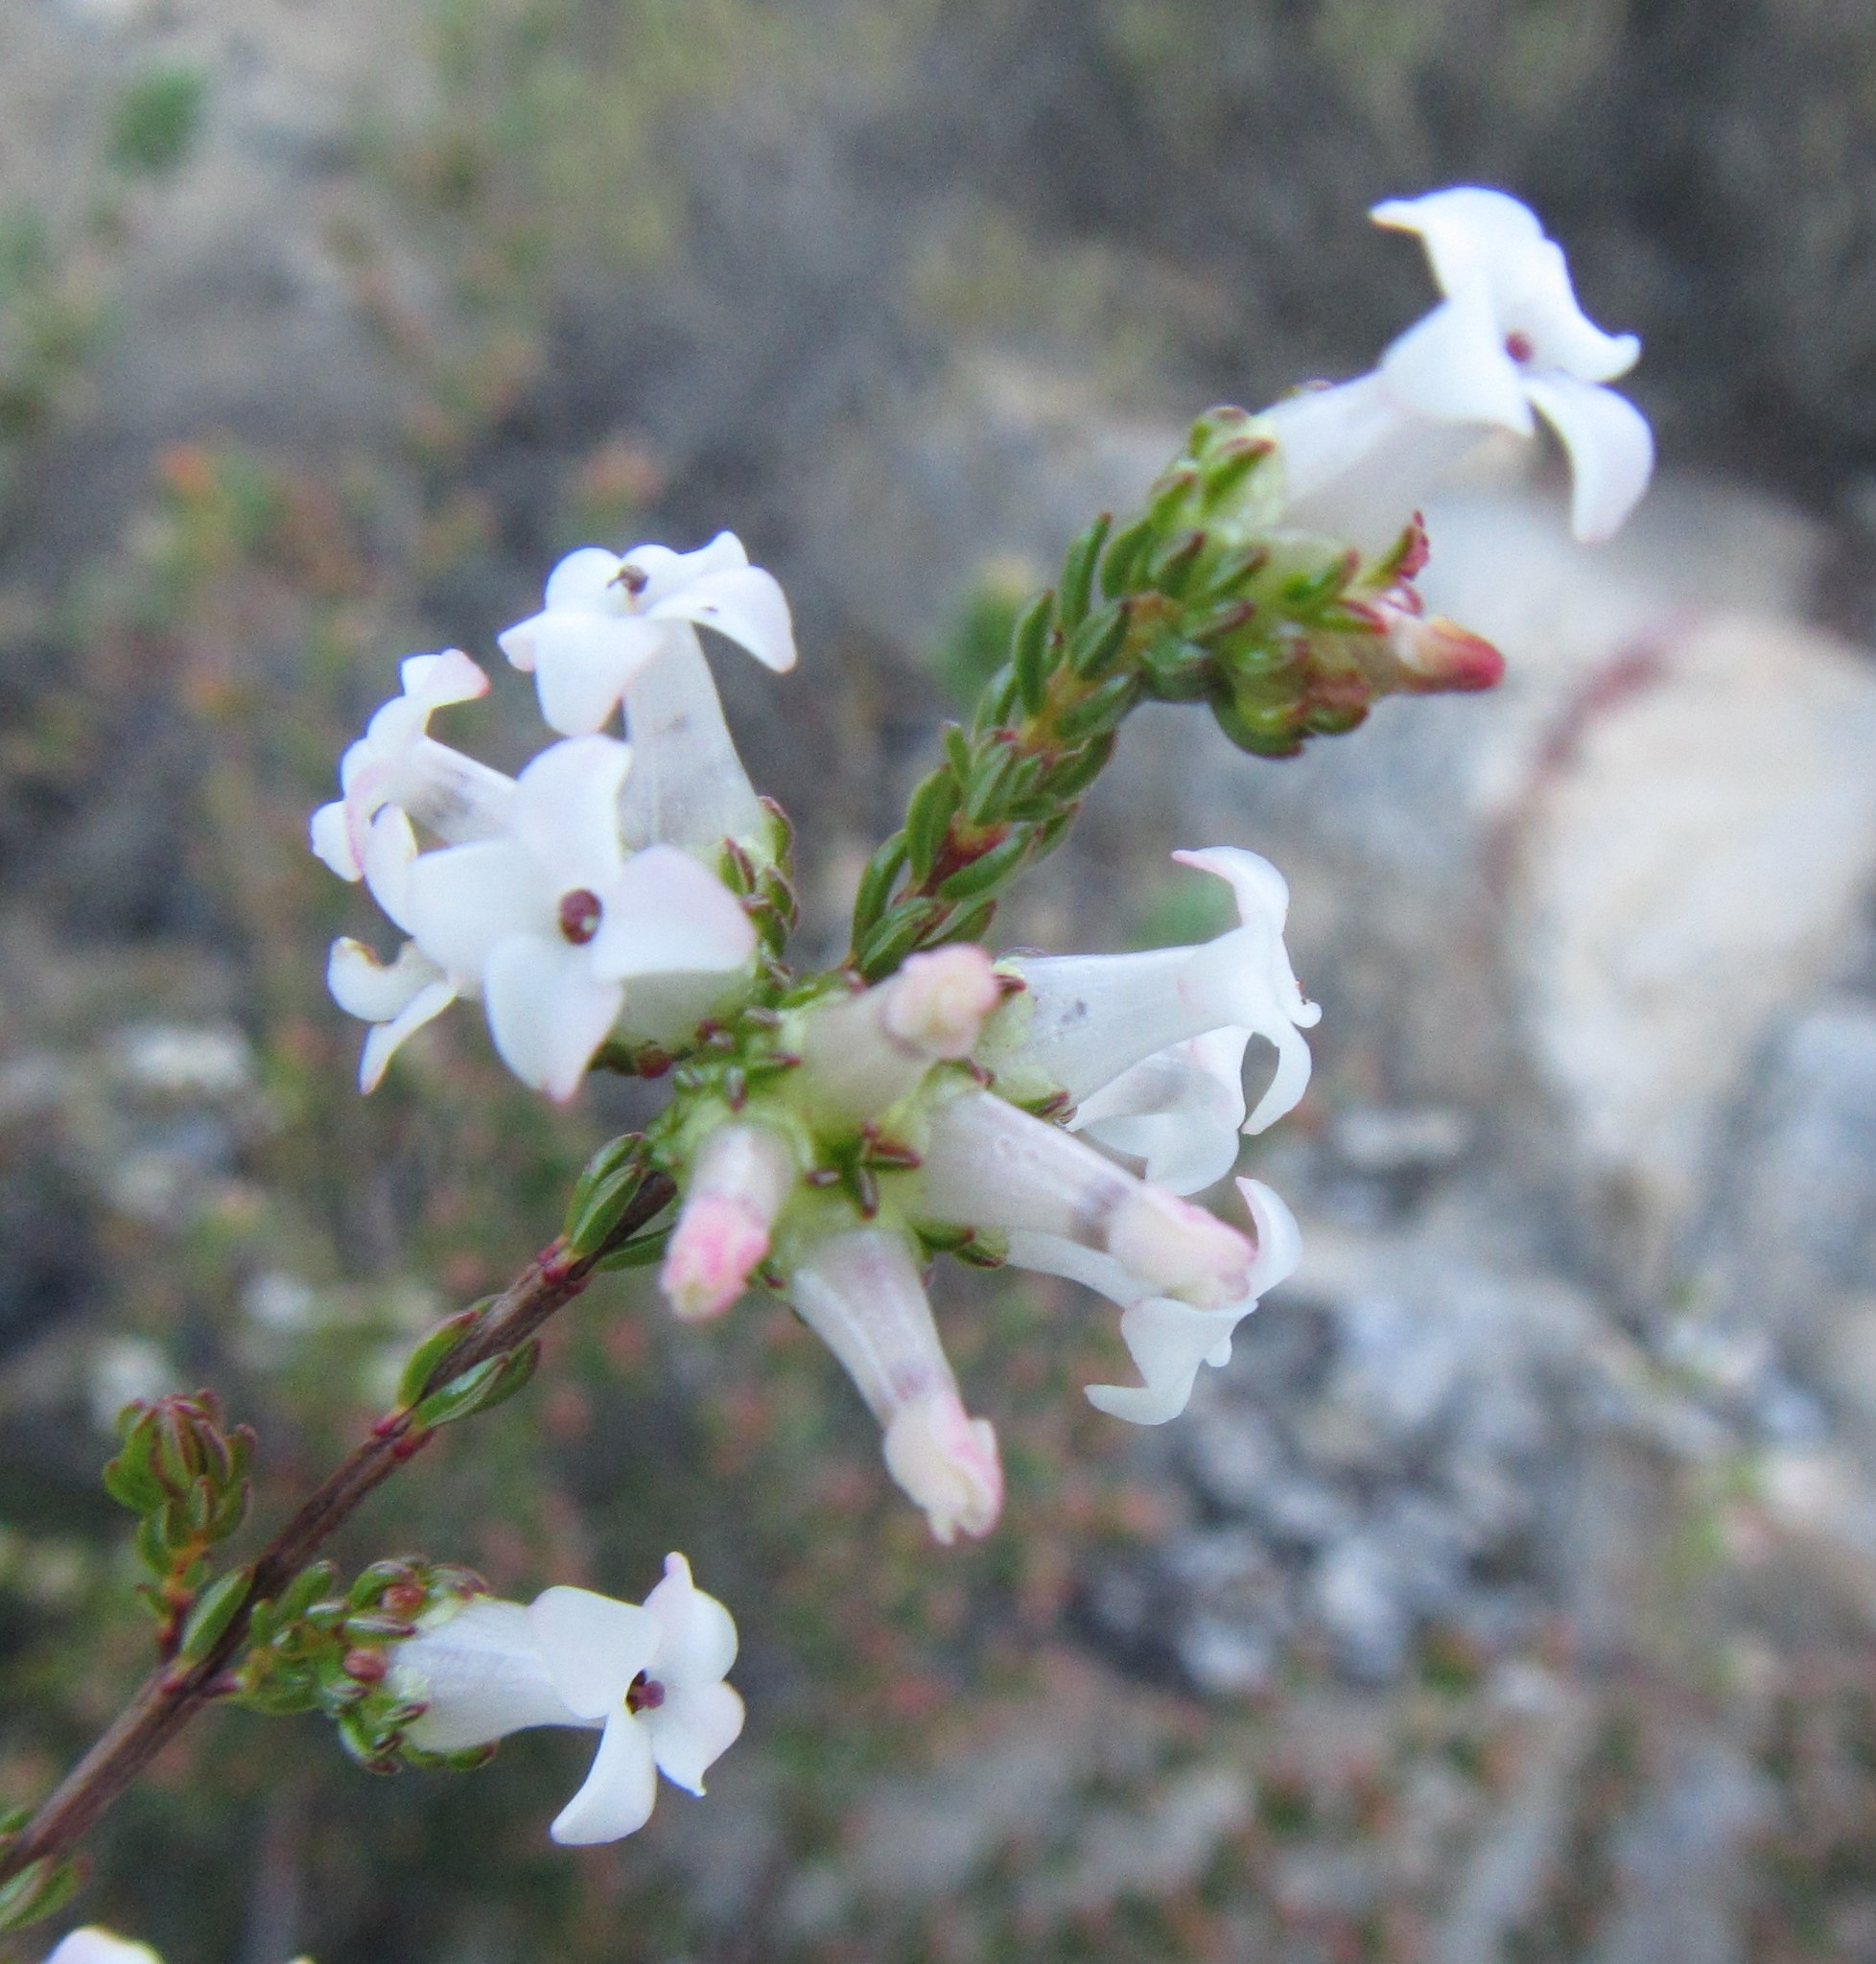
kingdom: Plantae
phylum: Tracheophyta
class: Magnoliopsida
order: Ericales
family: Ericaceae
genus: Erica
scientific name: Erica denticulata
